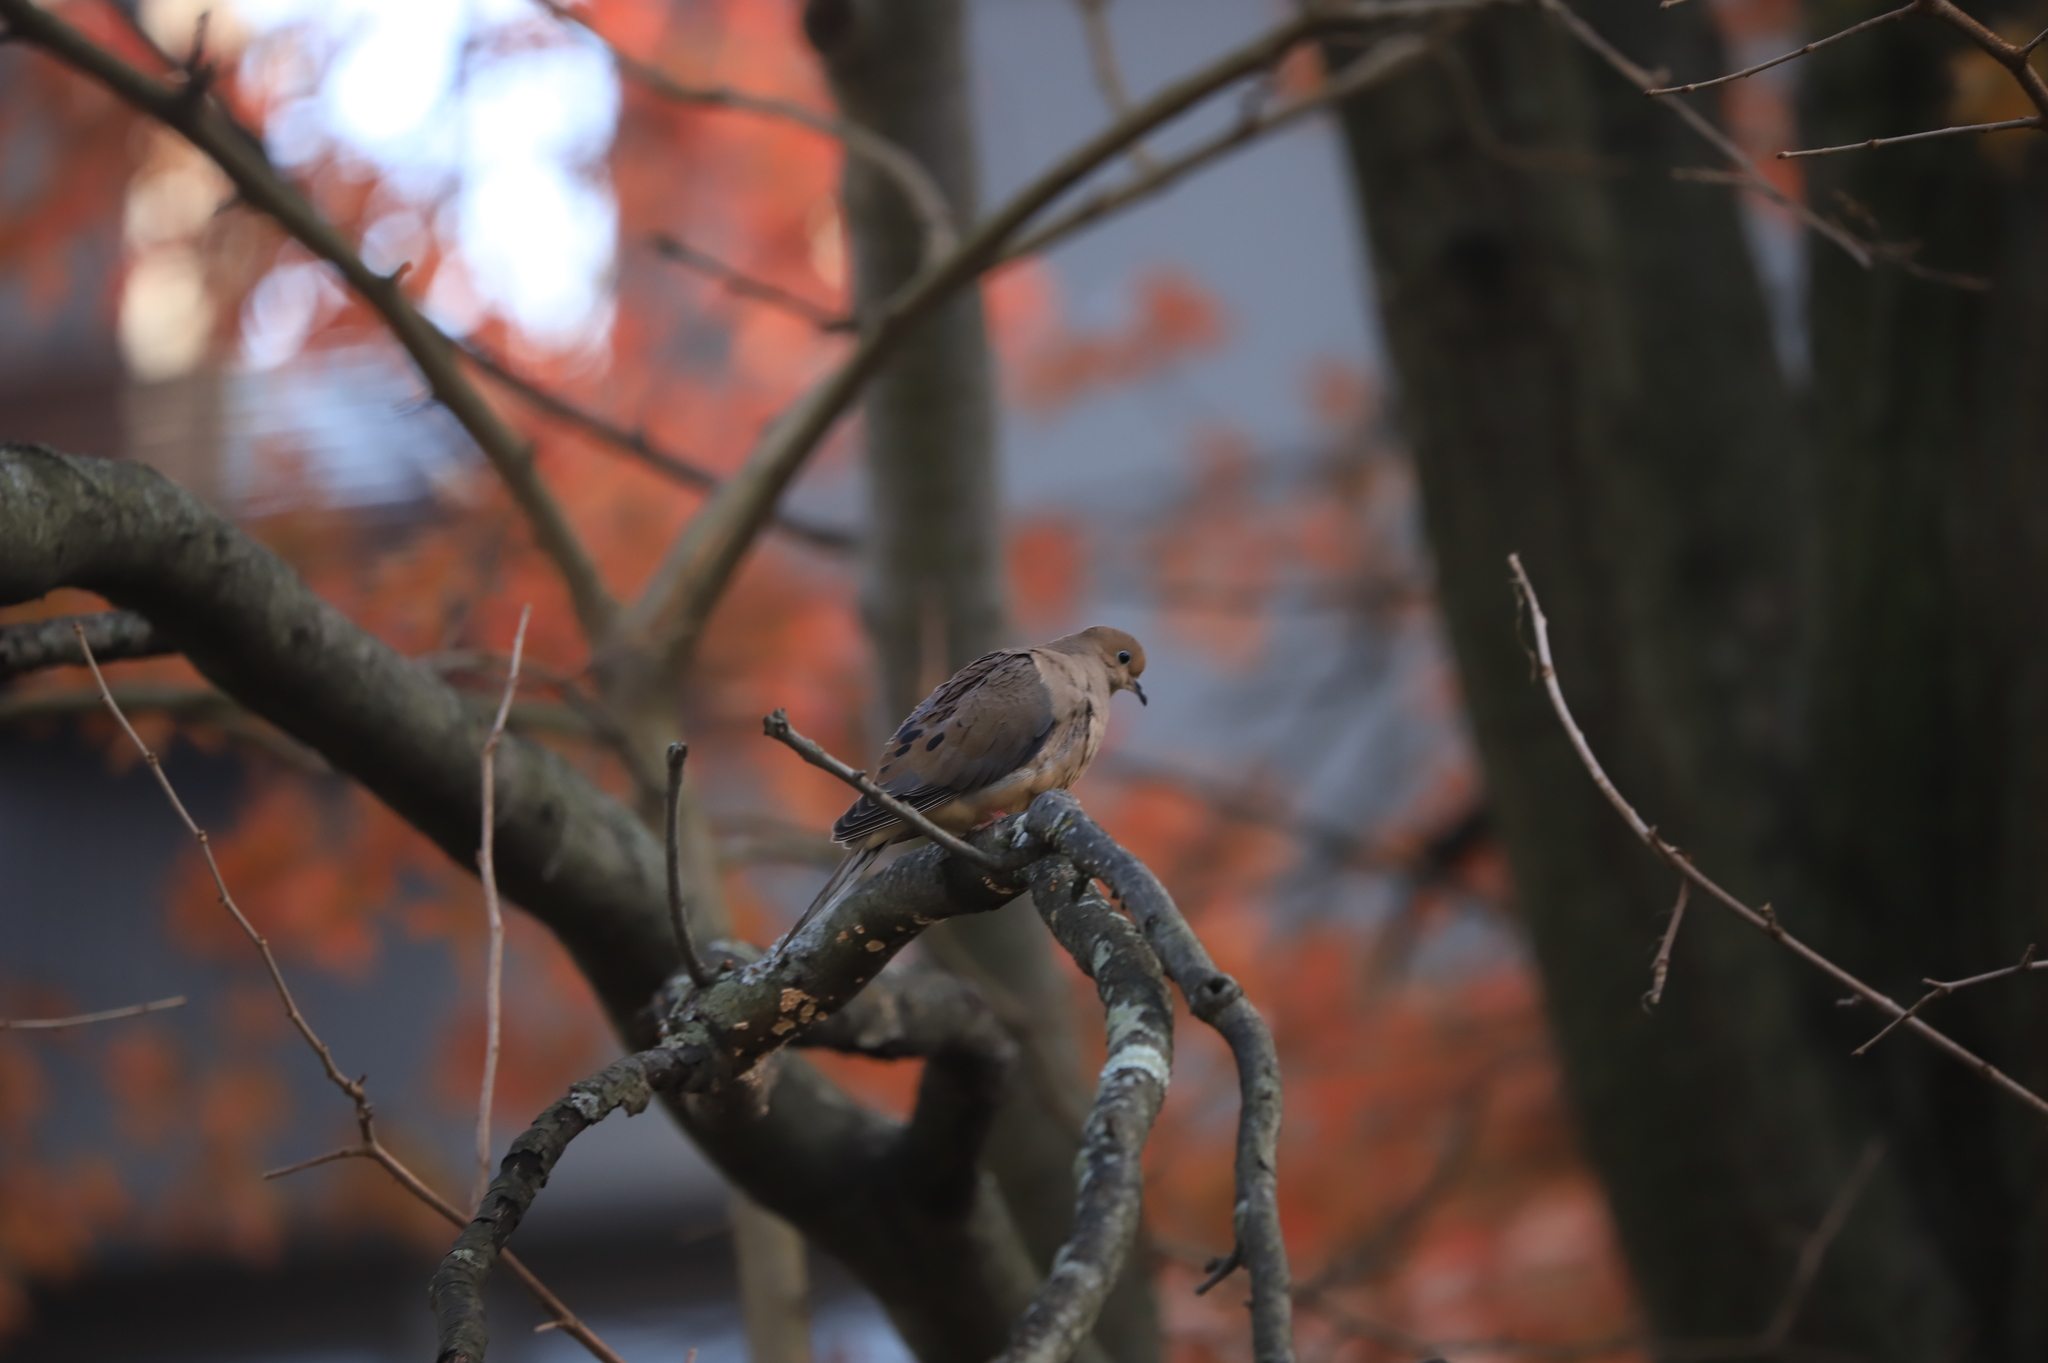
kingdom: Animalia
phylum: Chordata
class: Aves
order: Columbiformes
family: Columbidae
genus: Zenaida
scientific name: Zenaida macroura
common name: Mourning dove
